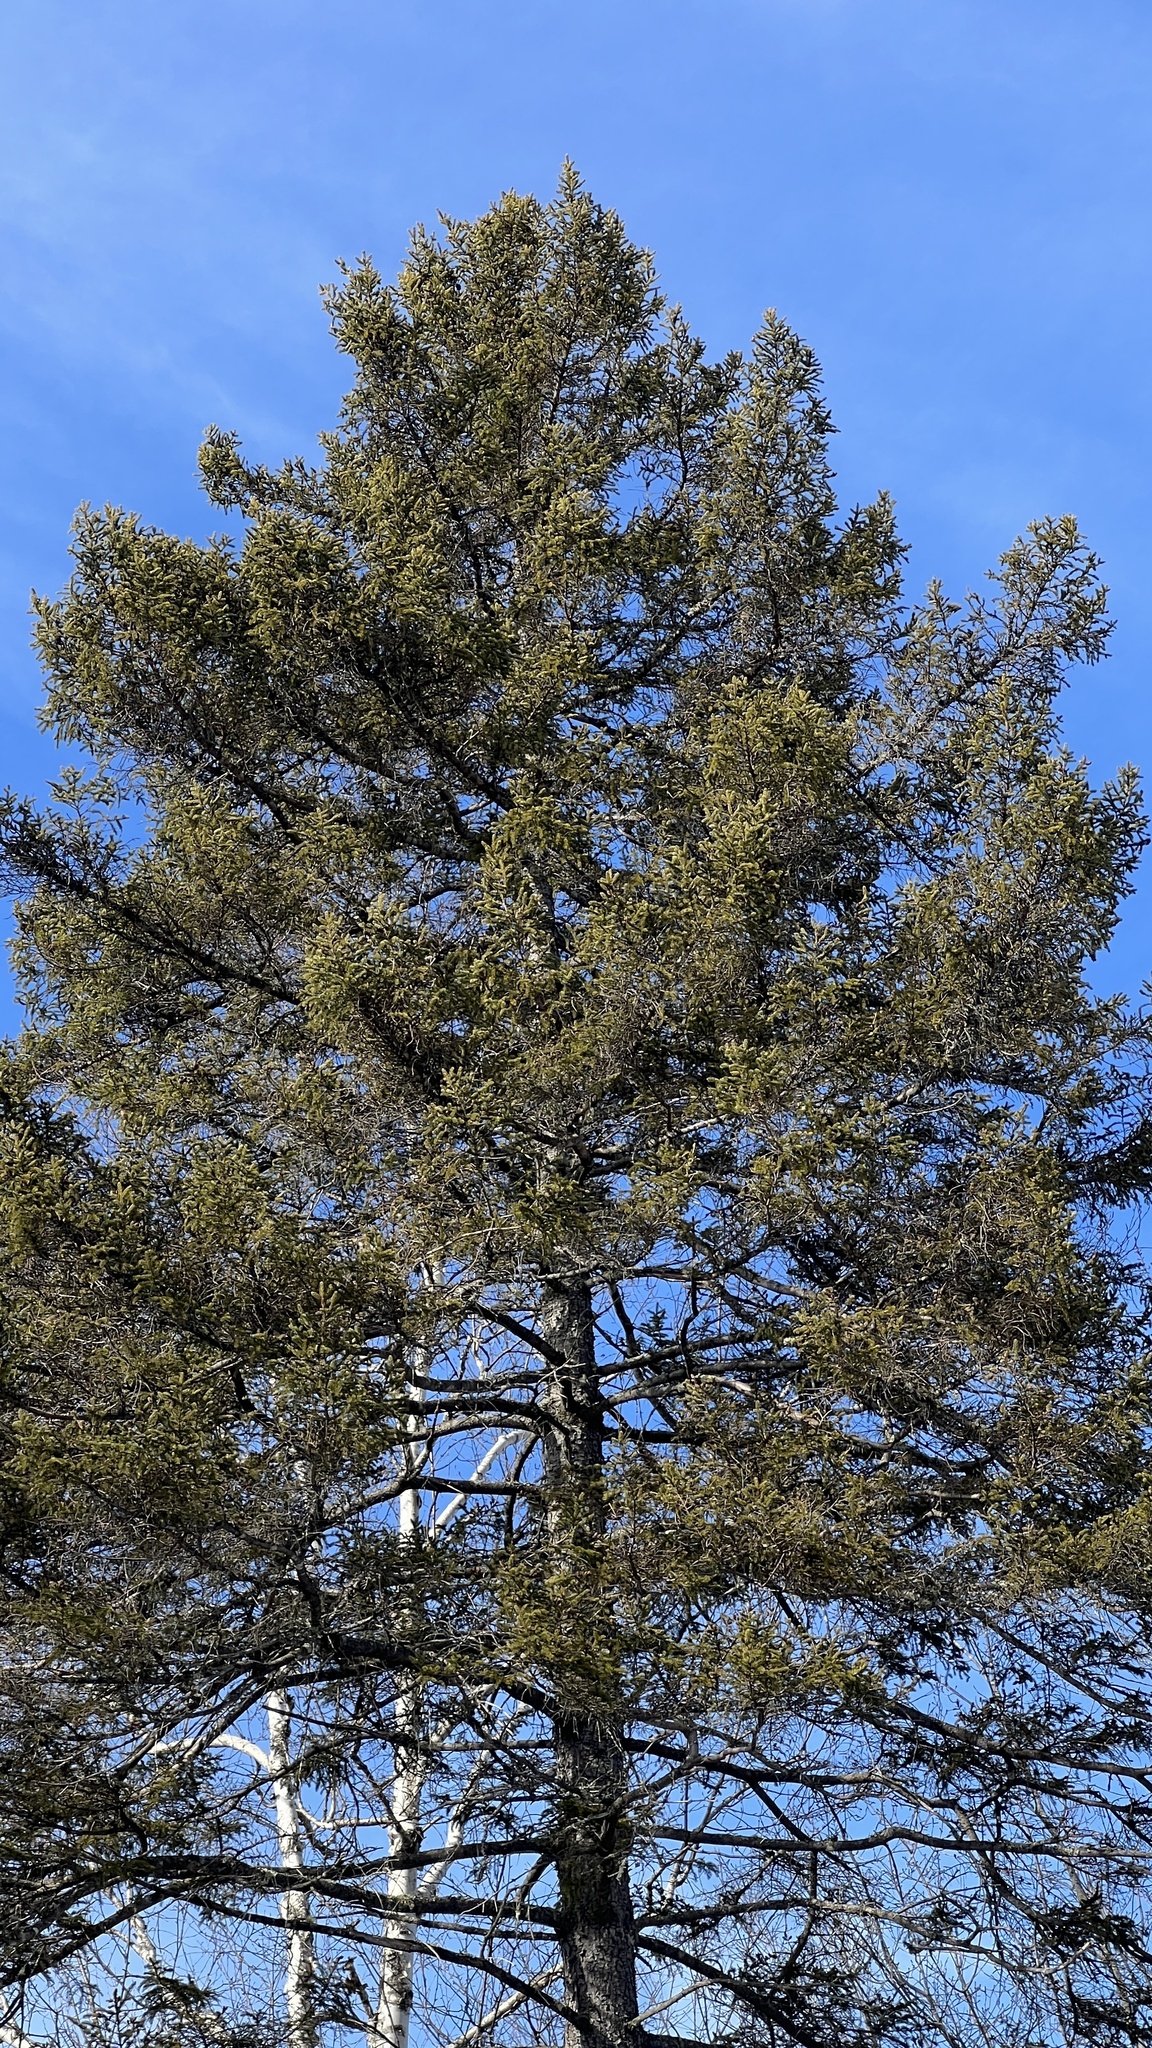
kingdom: Plantae
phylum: Tracheophyta
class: Pinopsida
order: Pinales
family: Pinaceae
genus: Picea
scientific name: Picea rubens
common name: Red spruce
